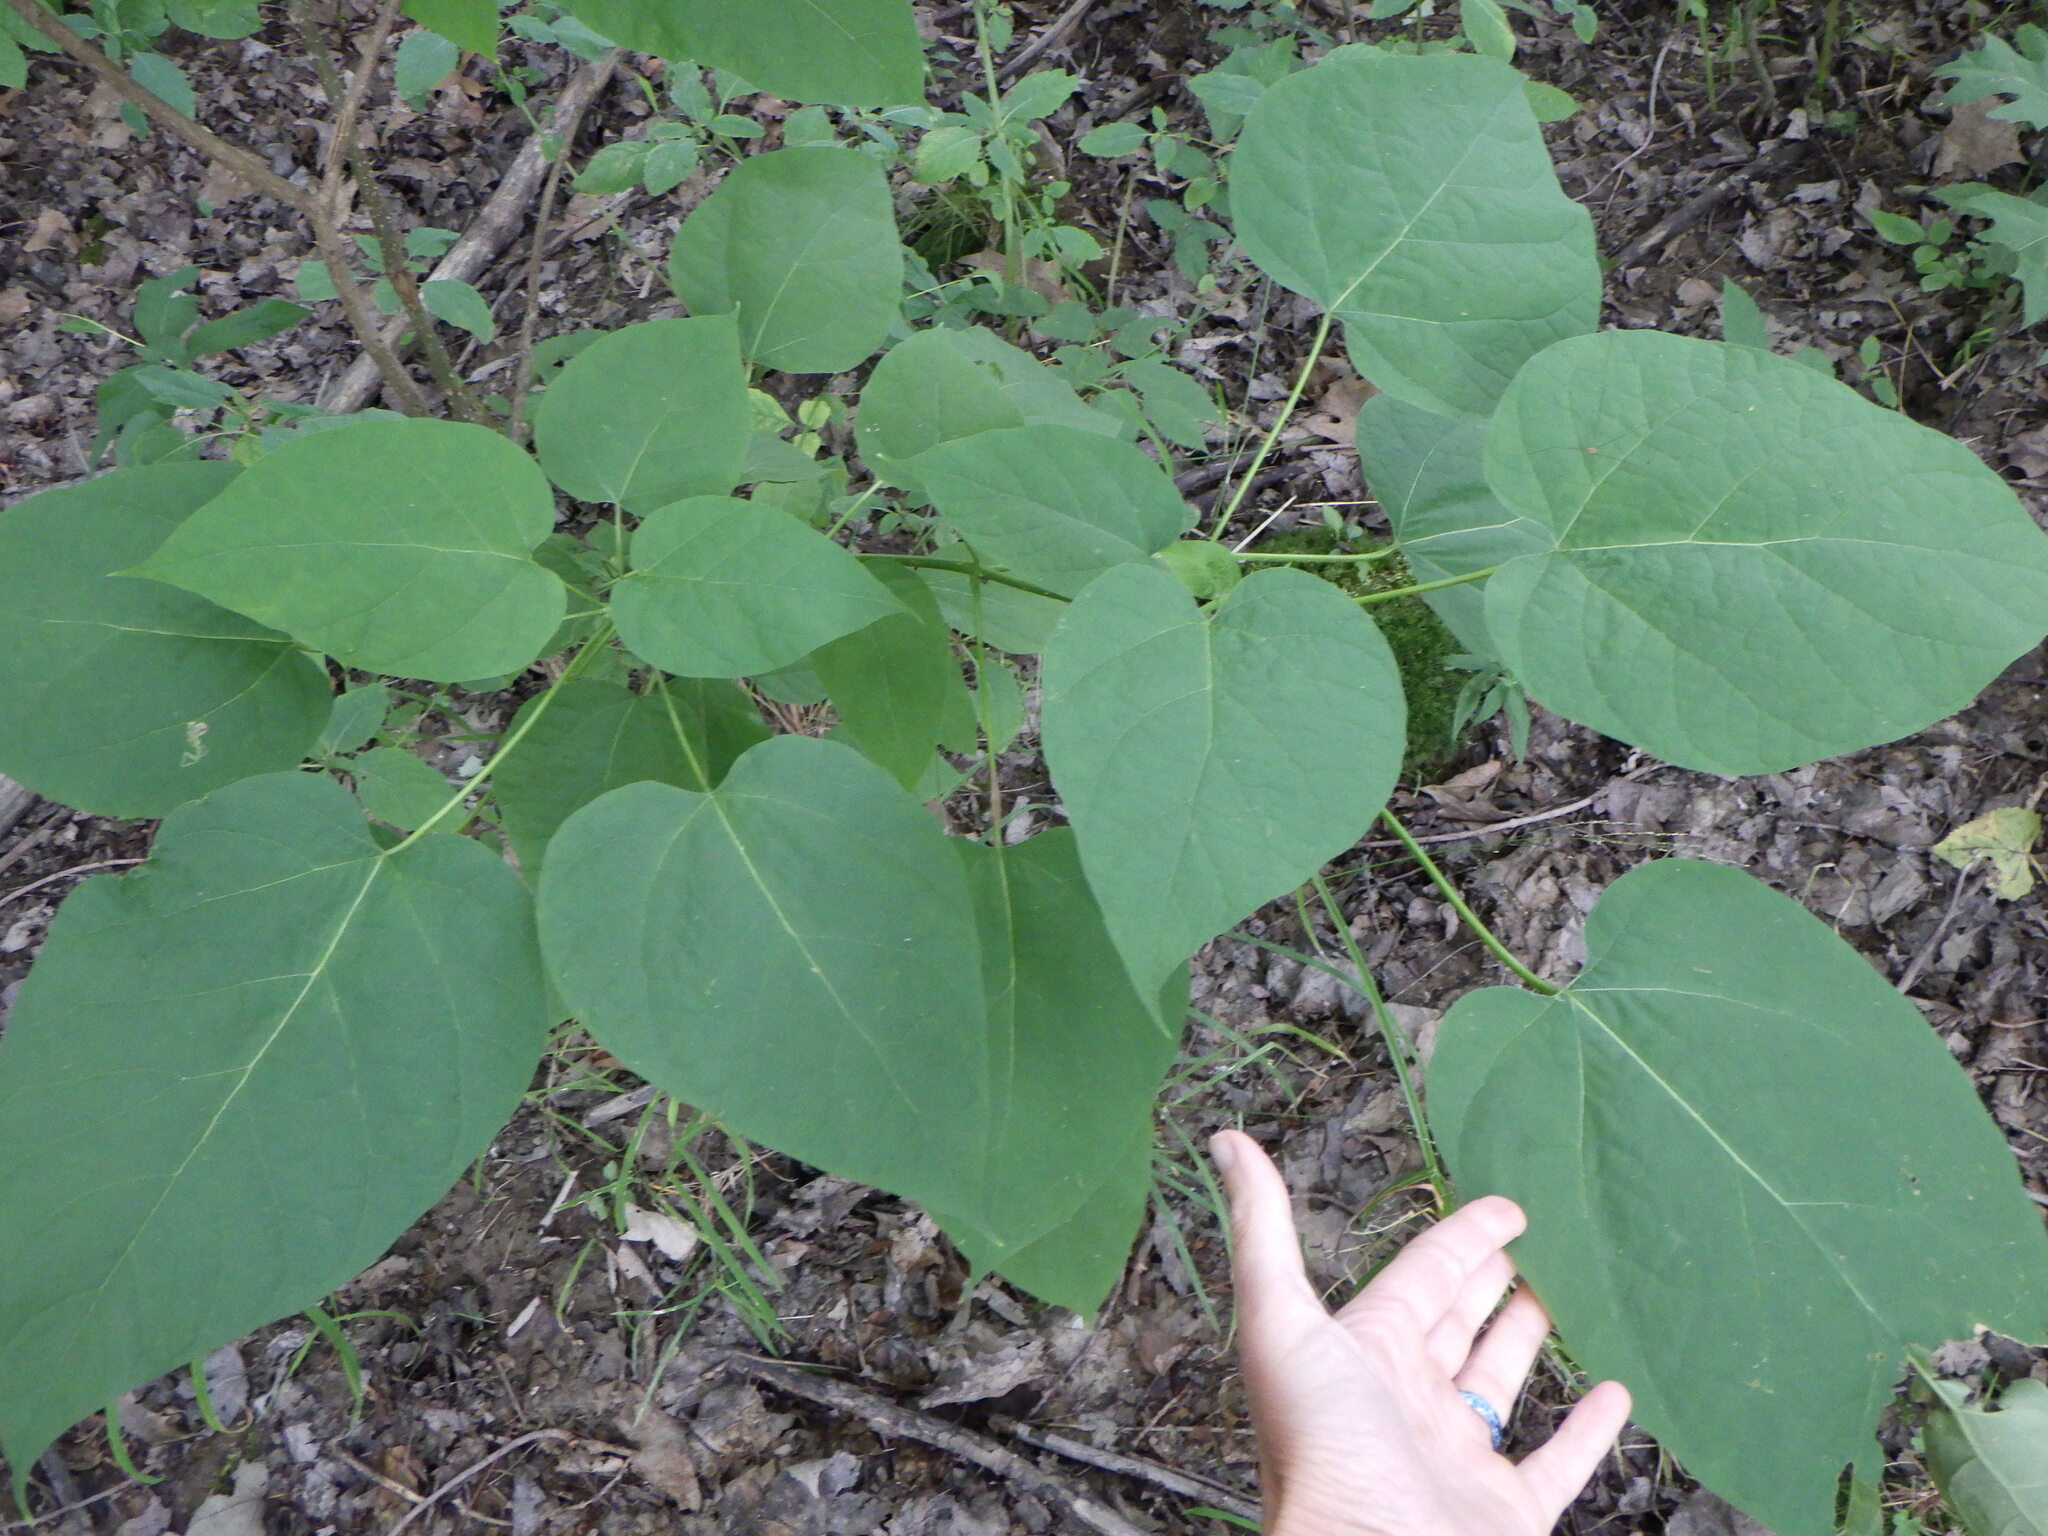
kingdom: Plantae
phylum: Tracheophyta
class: Magnoliopsida
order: Malvales
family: Malvaceae
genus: Tilia
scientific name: Tilia americana
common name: Basswood
